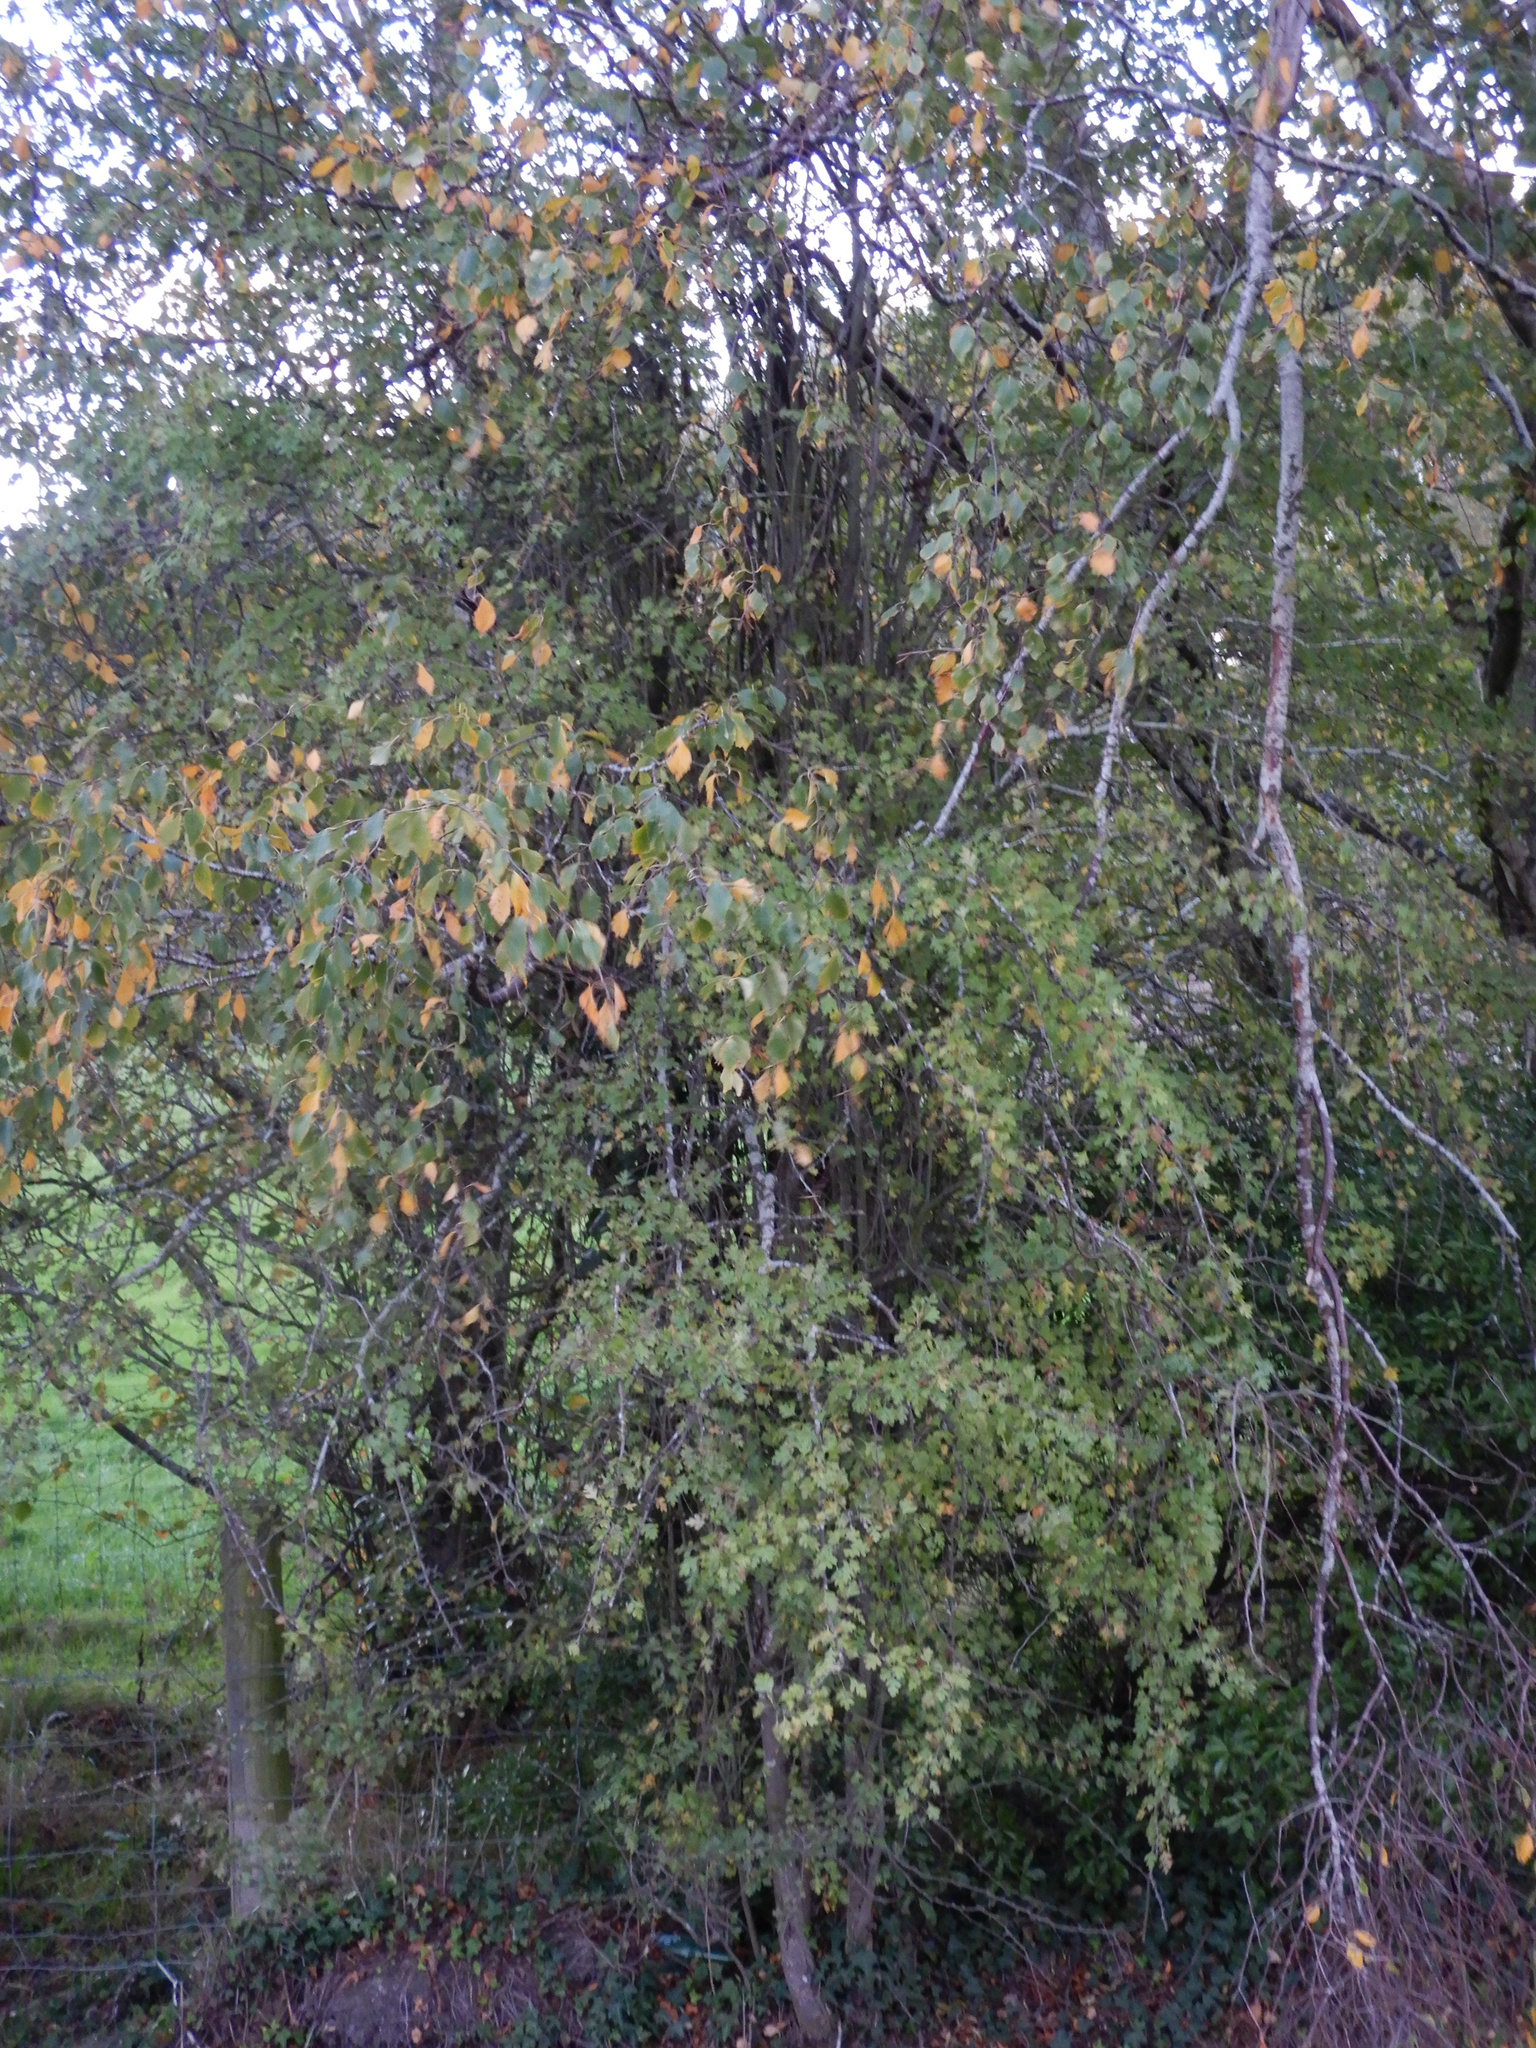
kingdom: Plantae
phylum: Tracheophyta
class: Magnoliopsida
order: Rosales
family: Rosaceae
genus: Crataegus
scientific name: Crataegus monogyna
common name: Hawthorn
